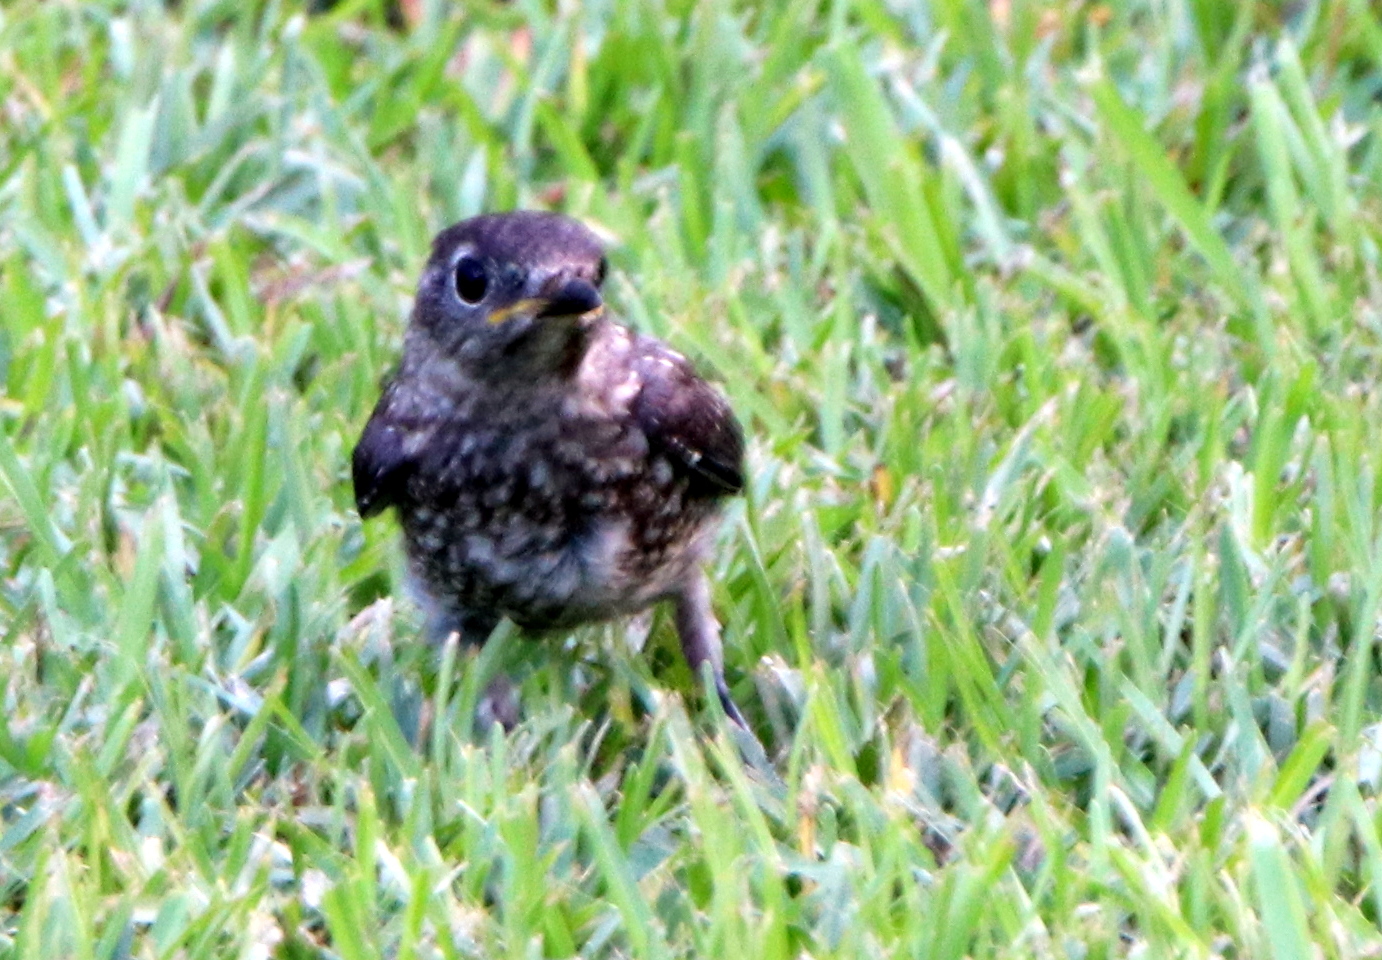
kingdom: Animalia
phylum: Chordata
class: Aves
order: Passeriformes
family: Turdidae
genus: Sialia
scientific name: Sialia sialis
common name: Eastern bluebird
